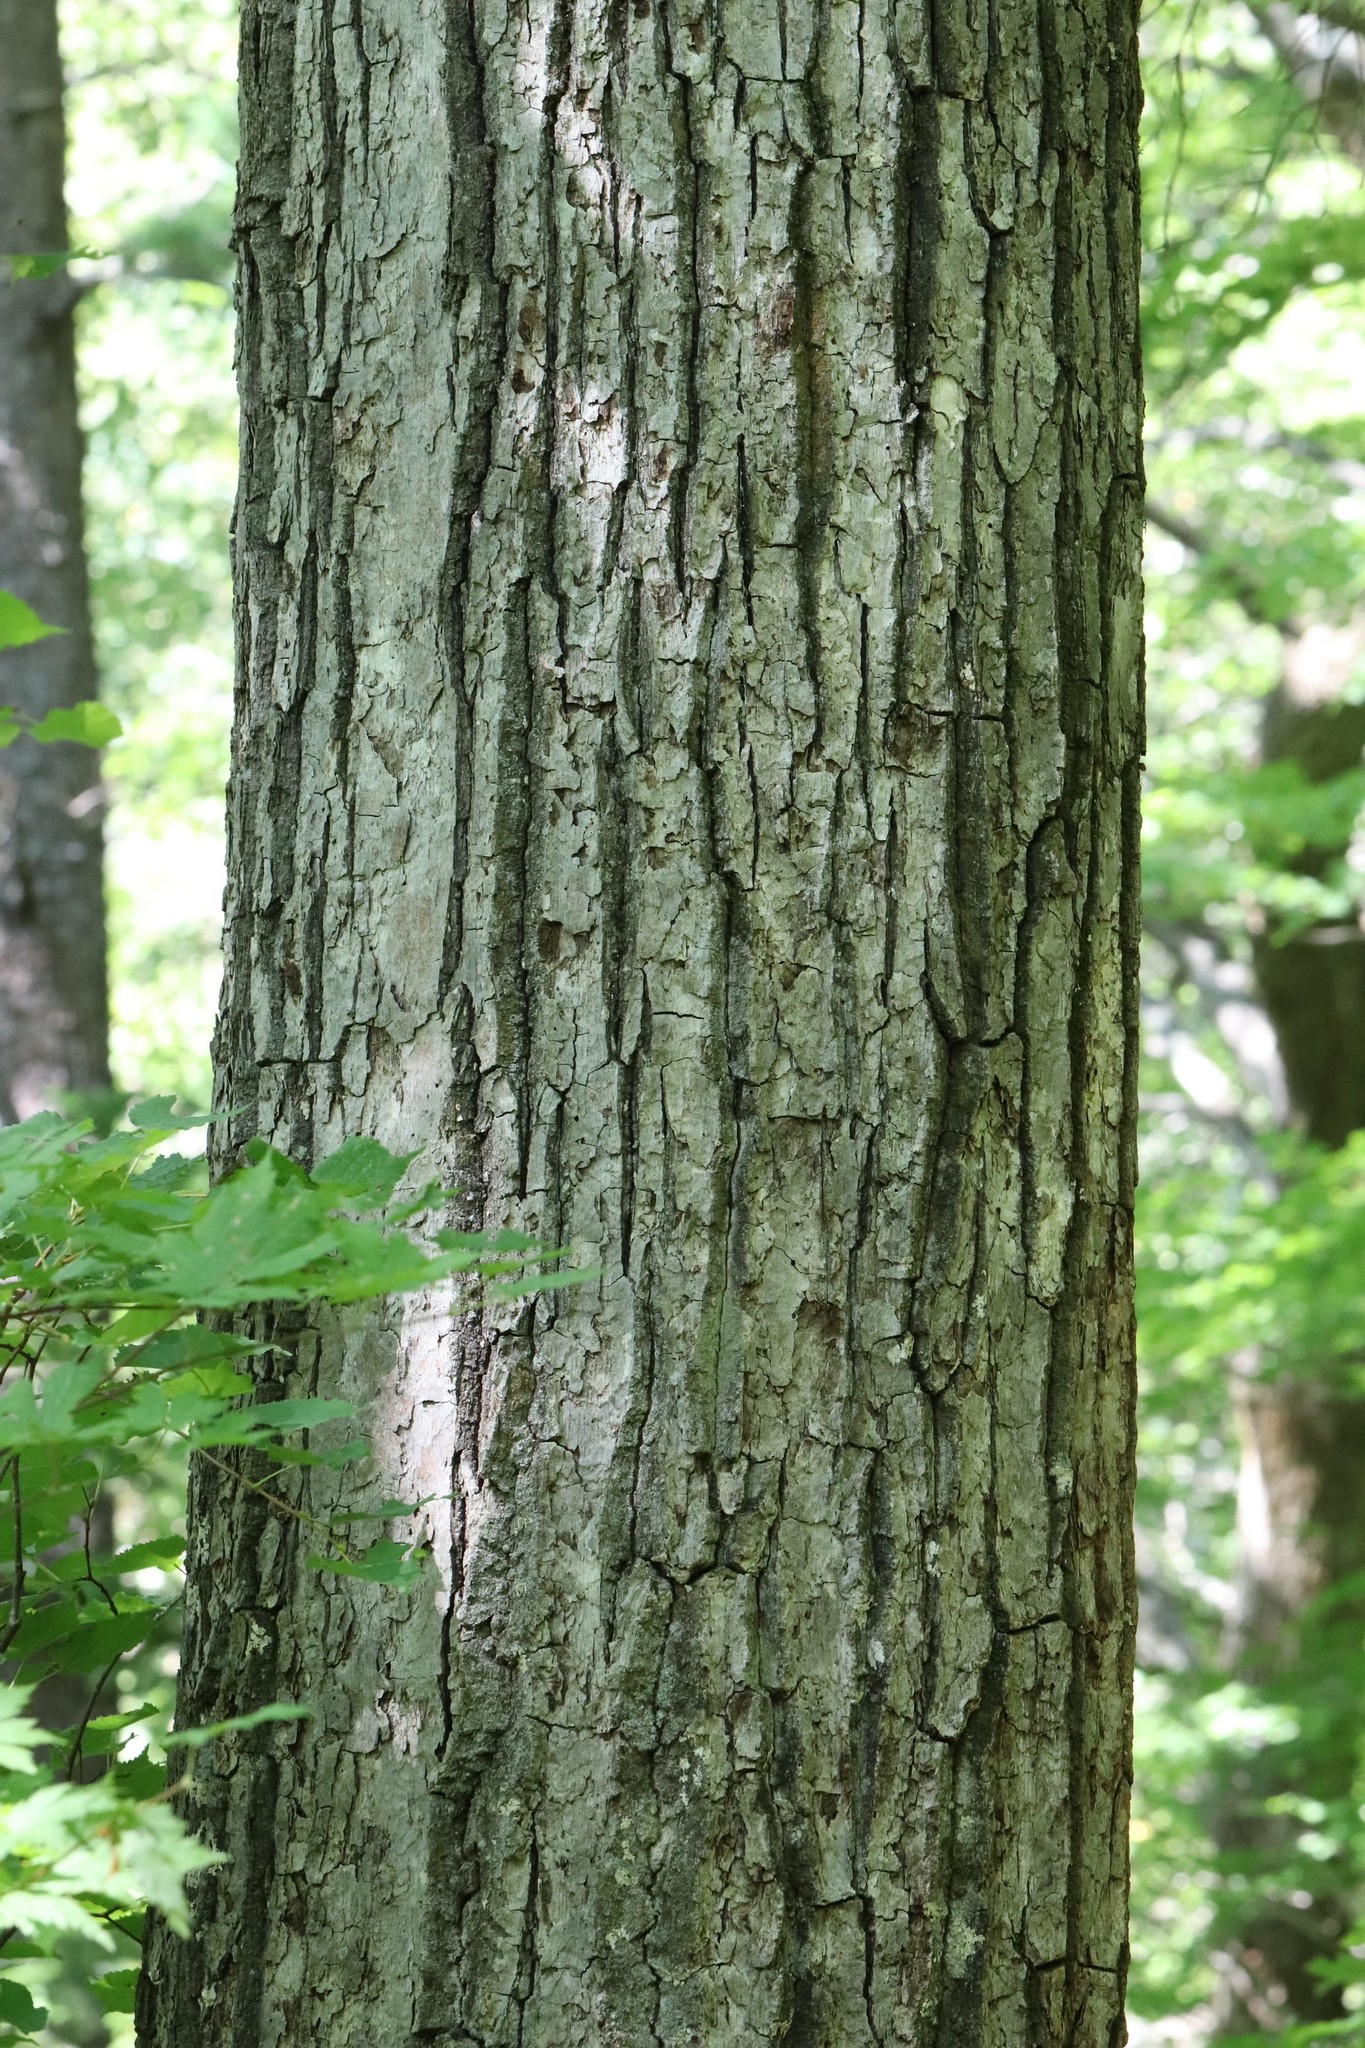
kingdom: Plantae
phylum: Tracheophyta
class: Magnoliopsida
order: Fagales
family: Fagaceae
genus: Quercus
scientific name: Quercus mongolica
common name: Mongolian oak
